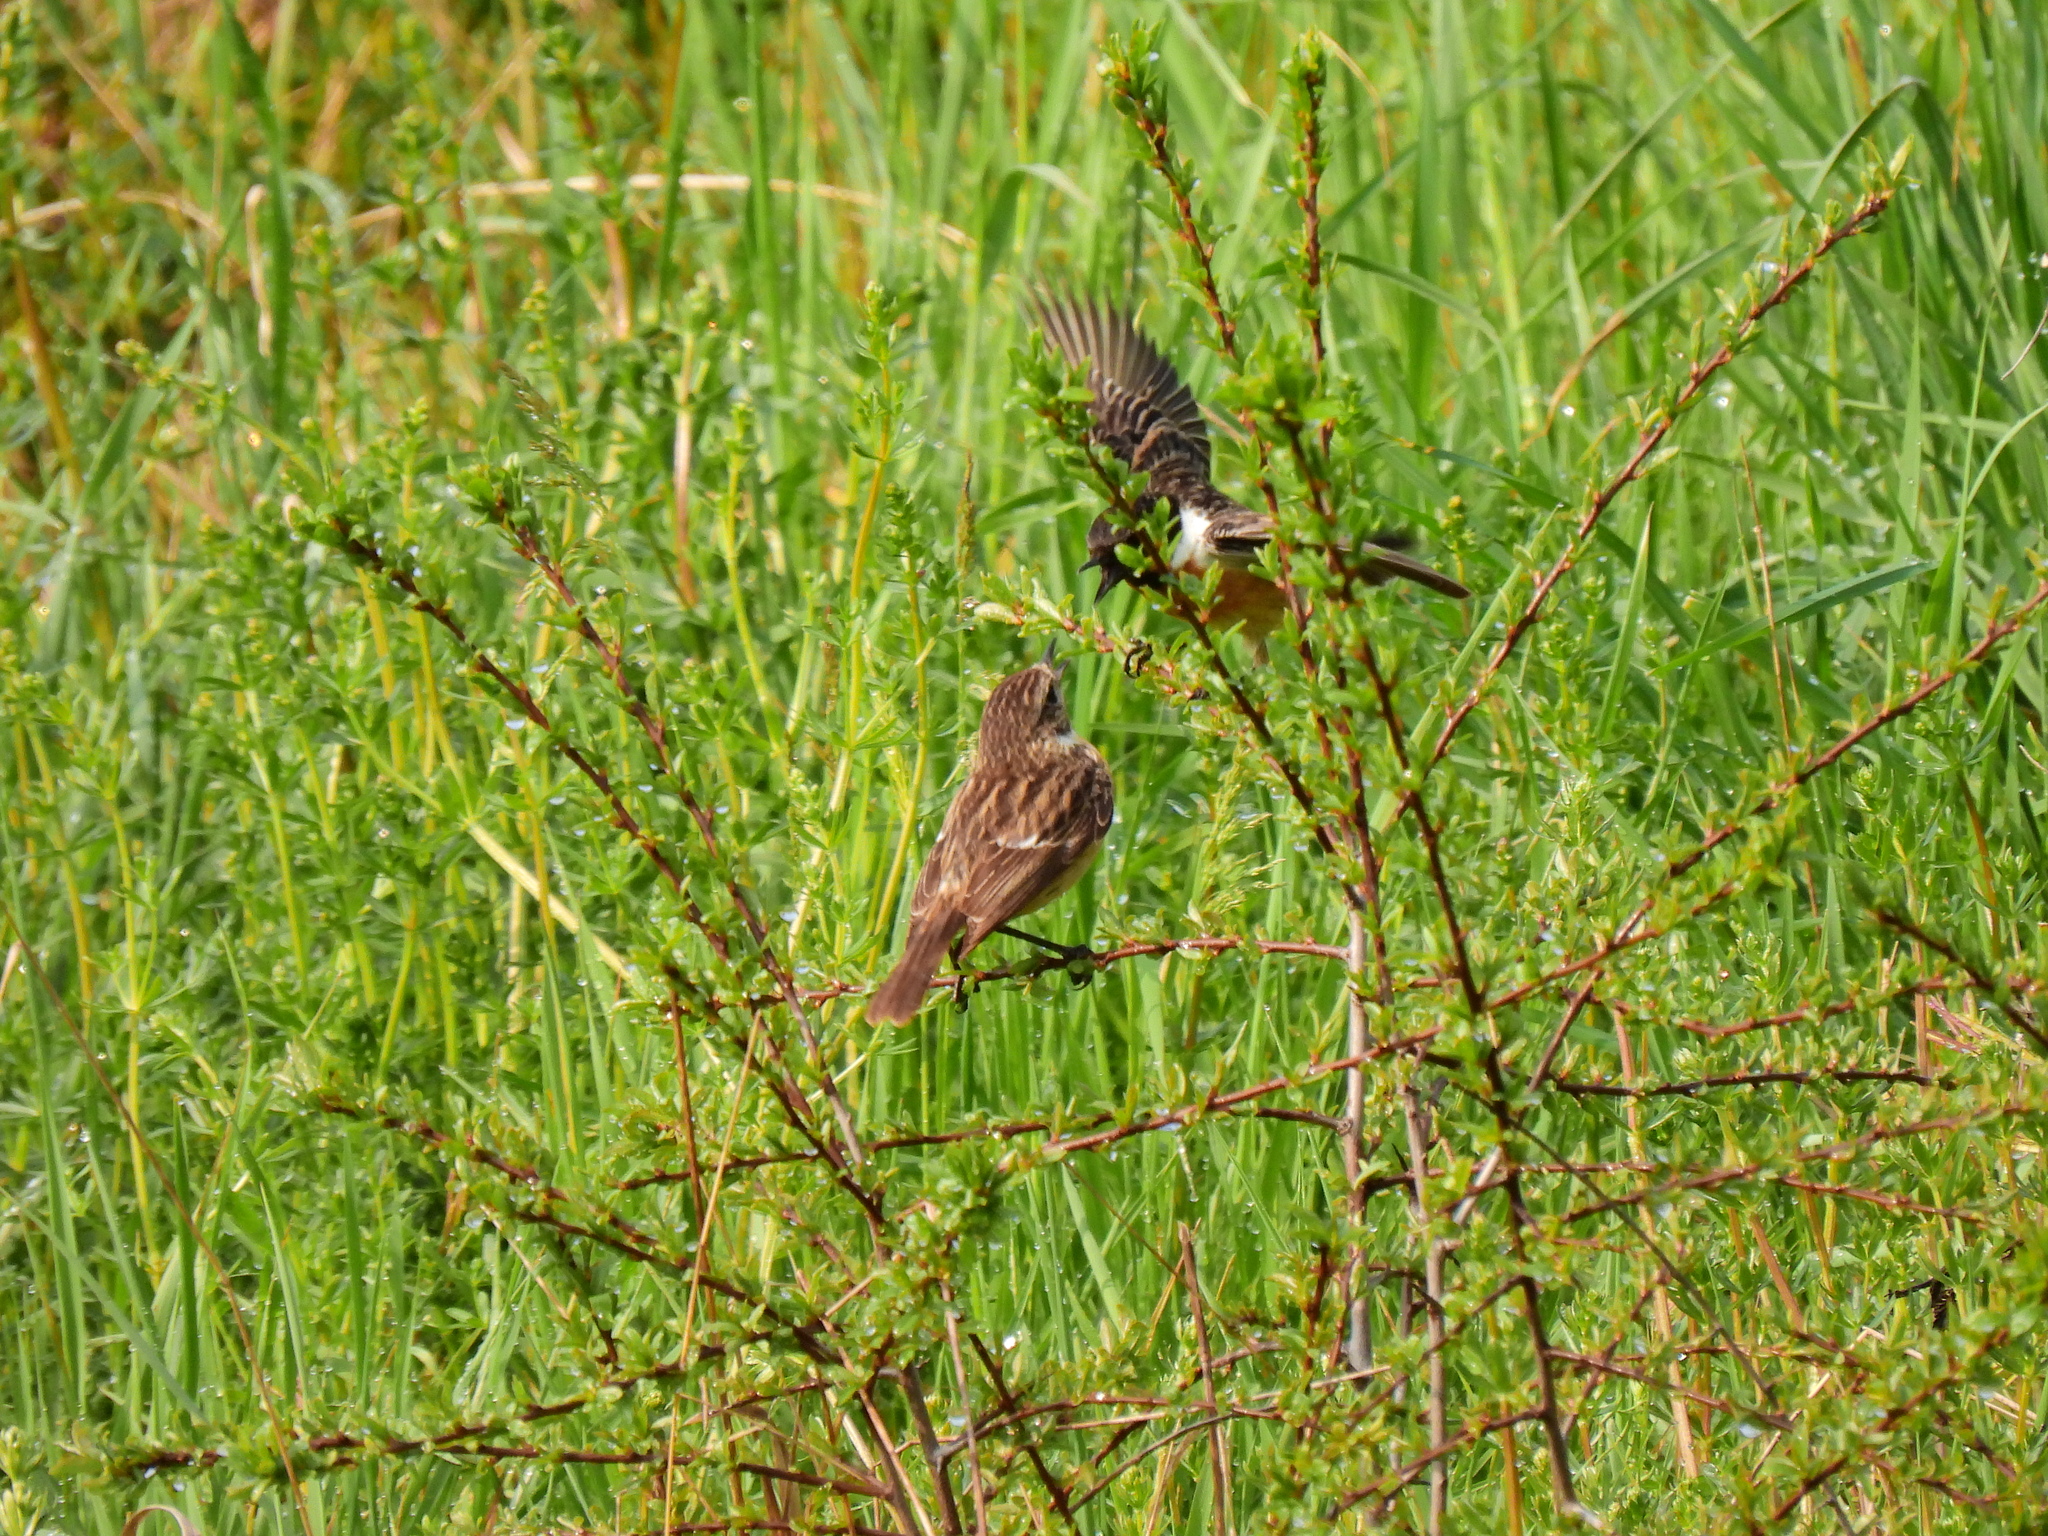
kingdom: Animalia
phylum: Chordata
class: Aves
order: Passeriformes
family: Muscicapidae
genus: Saxicola
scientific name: Saxicola rubicola
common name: European stonechat
